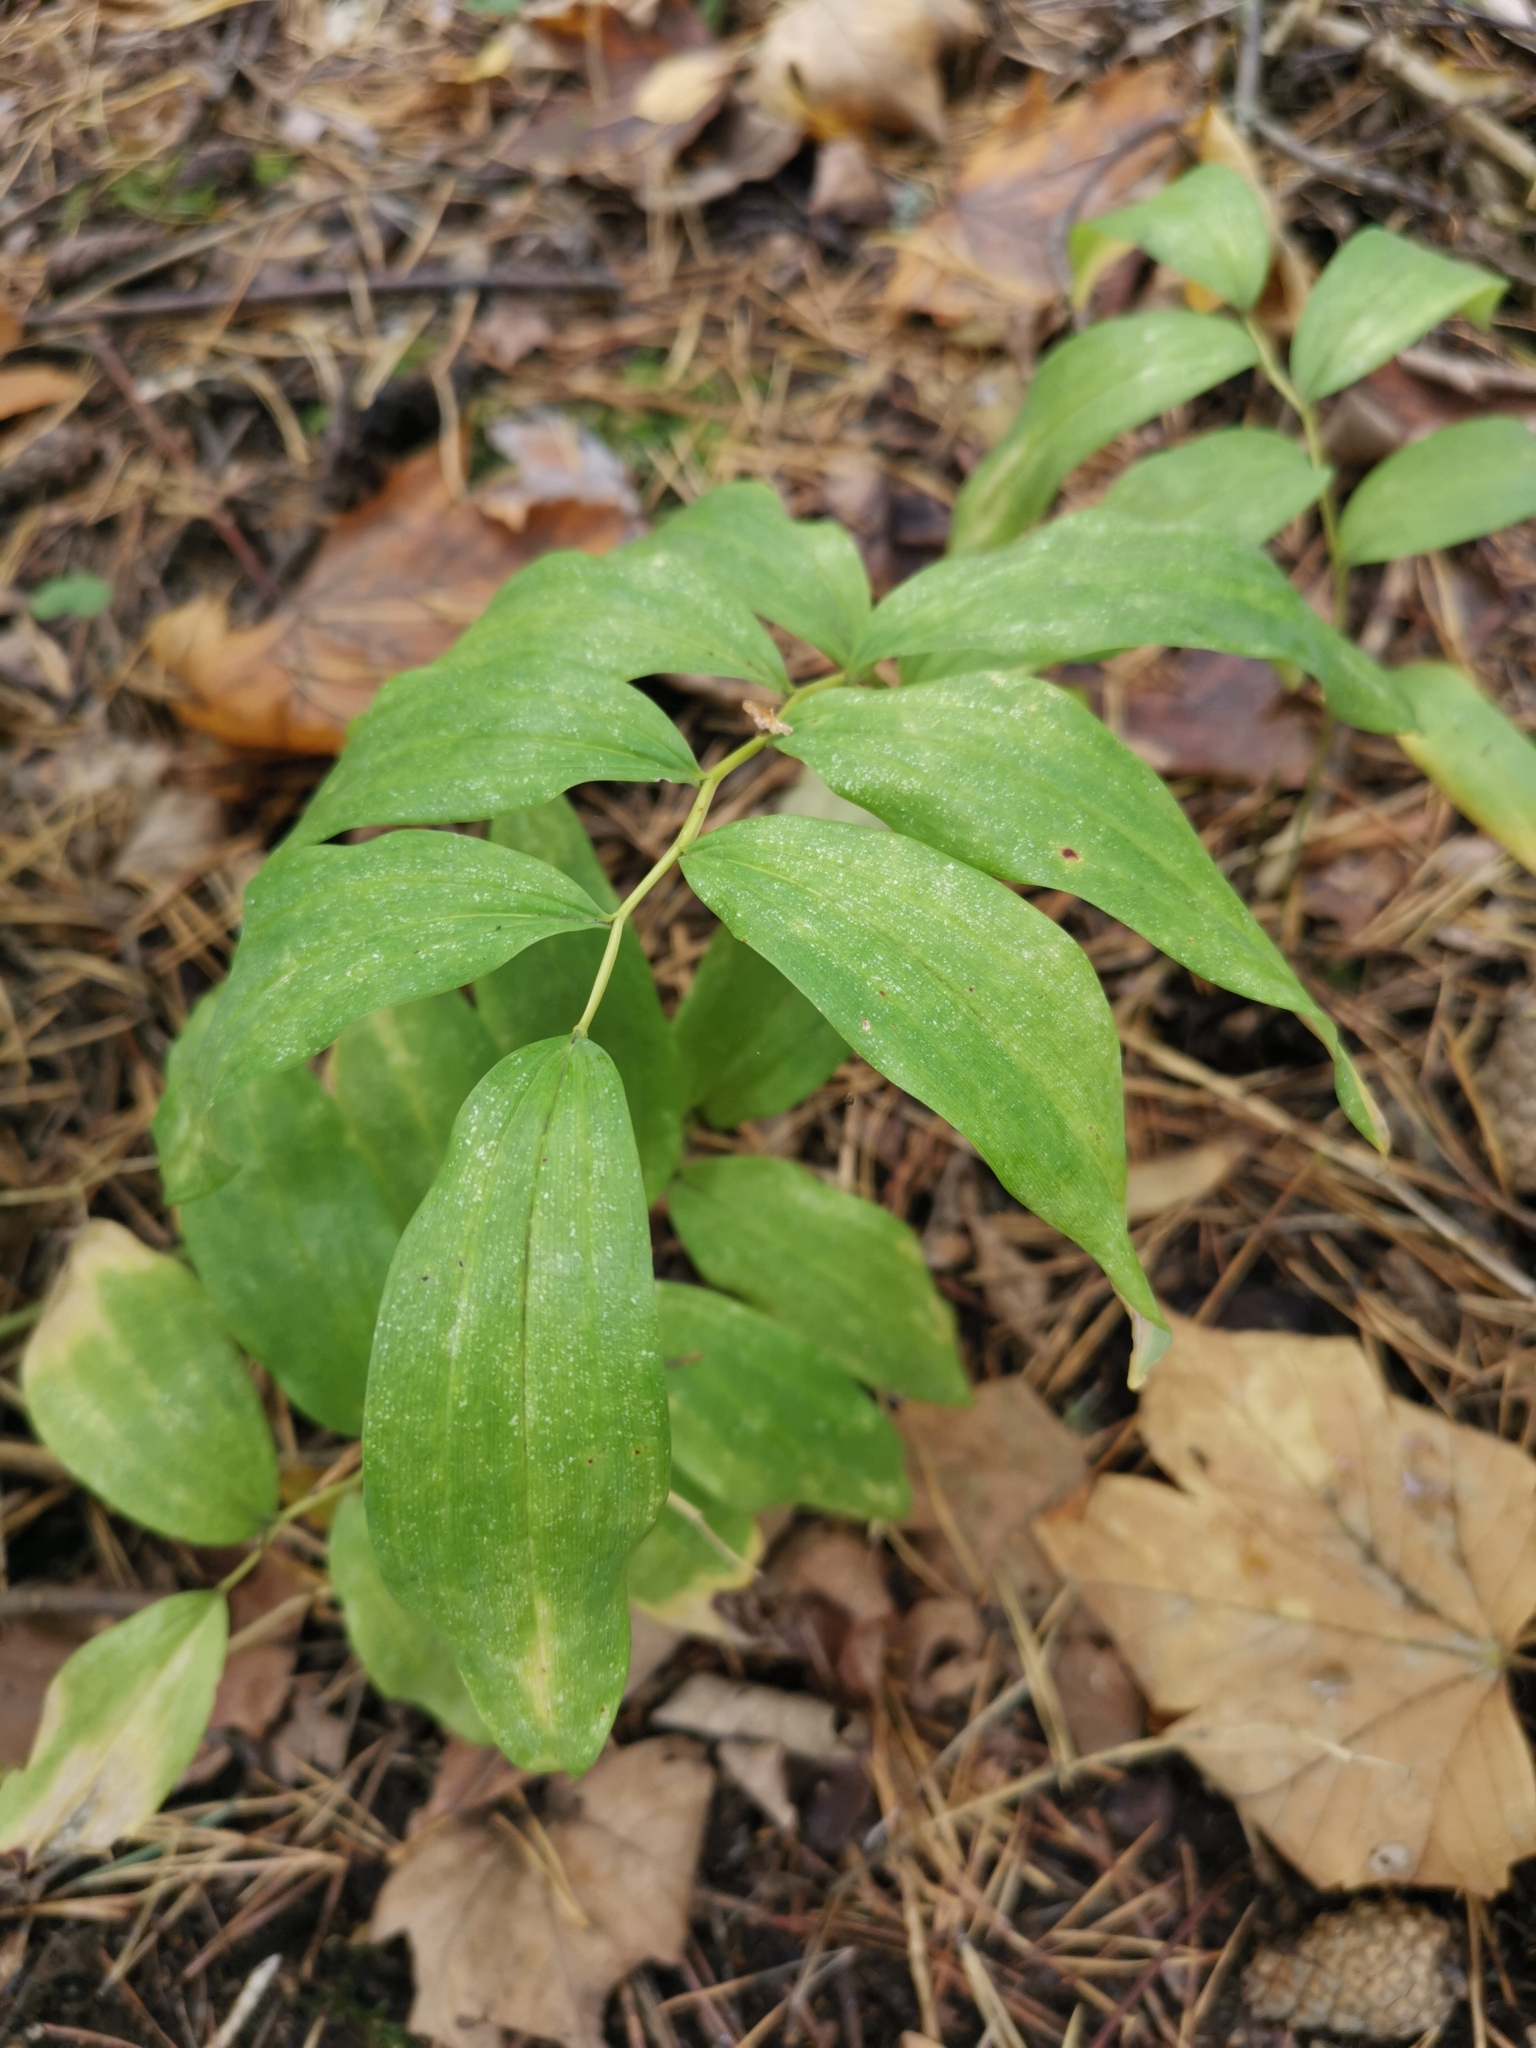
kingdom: Plantae
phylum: Tracheophyta
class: Liliopsida
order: Asparagales
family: Asparagaceae
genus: Polygonatum
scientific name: Polygonatum multiflorum
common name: Solomon's-seal
